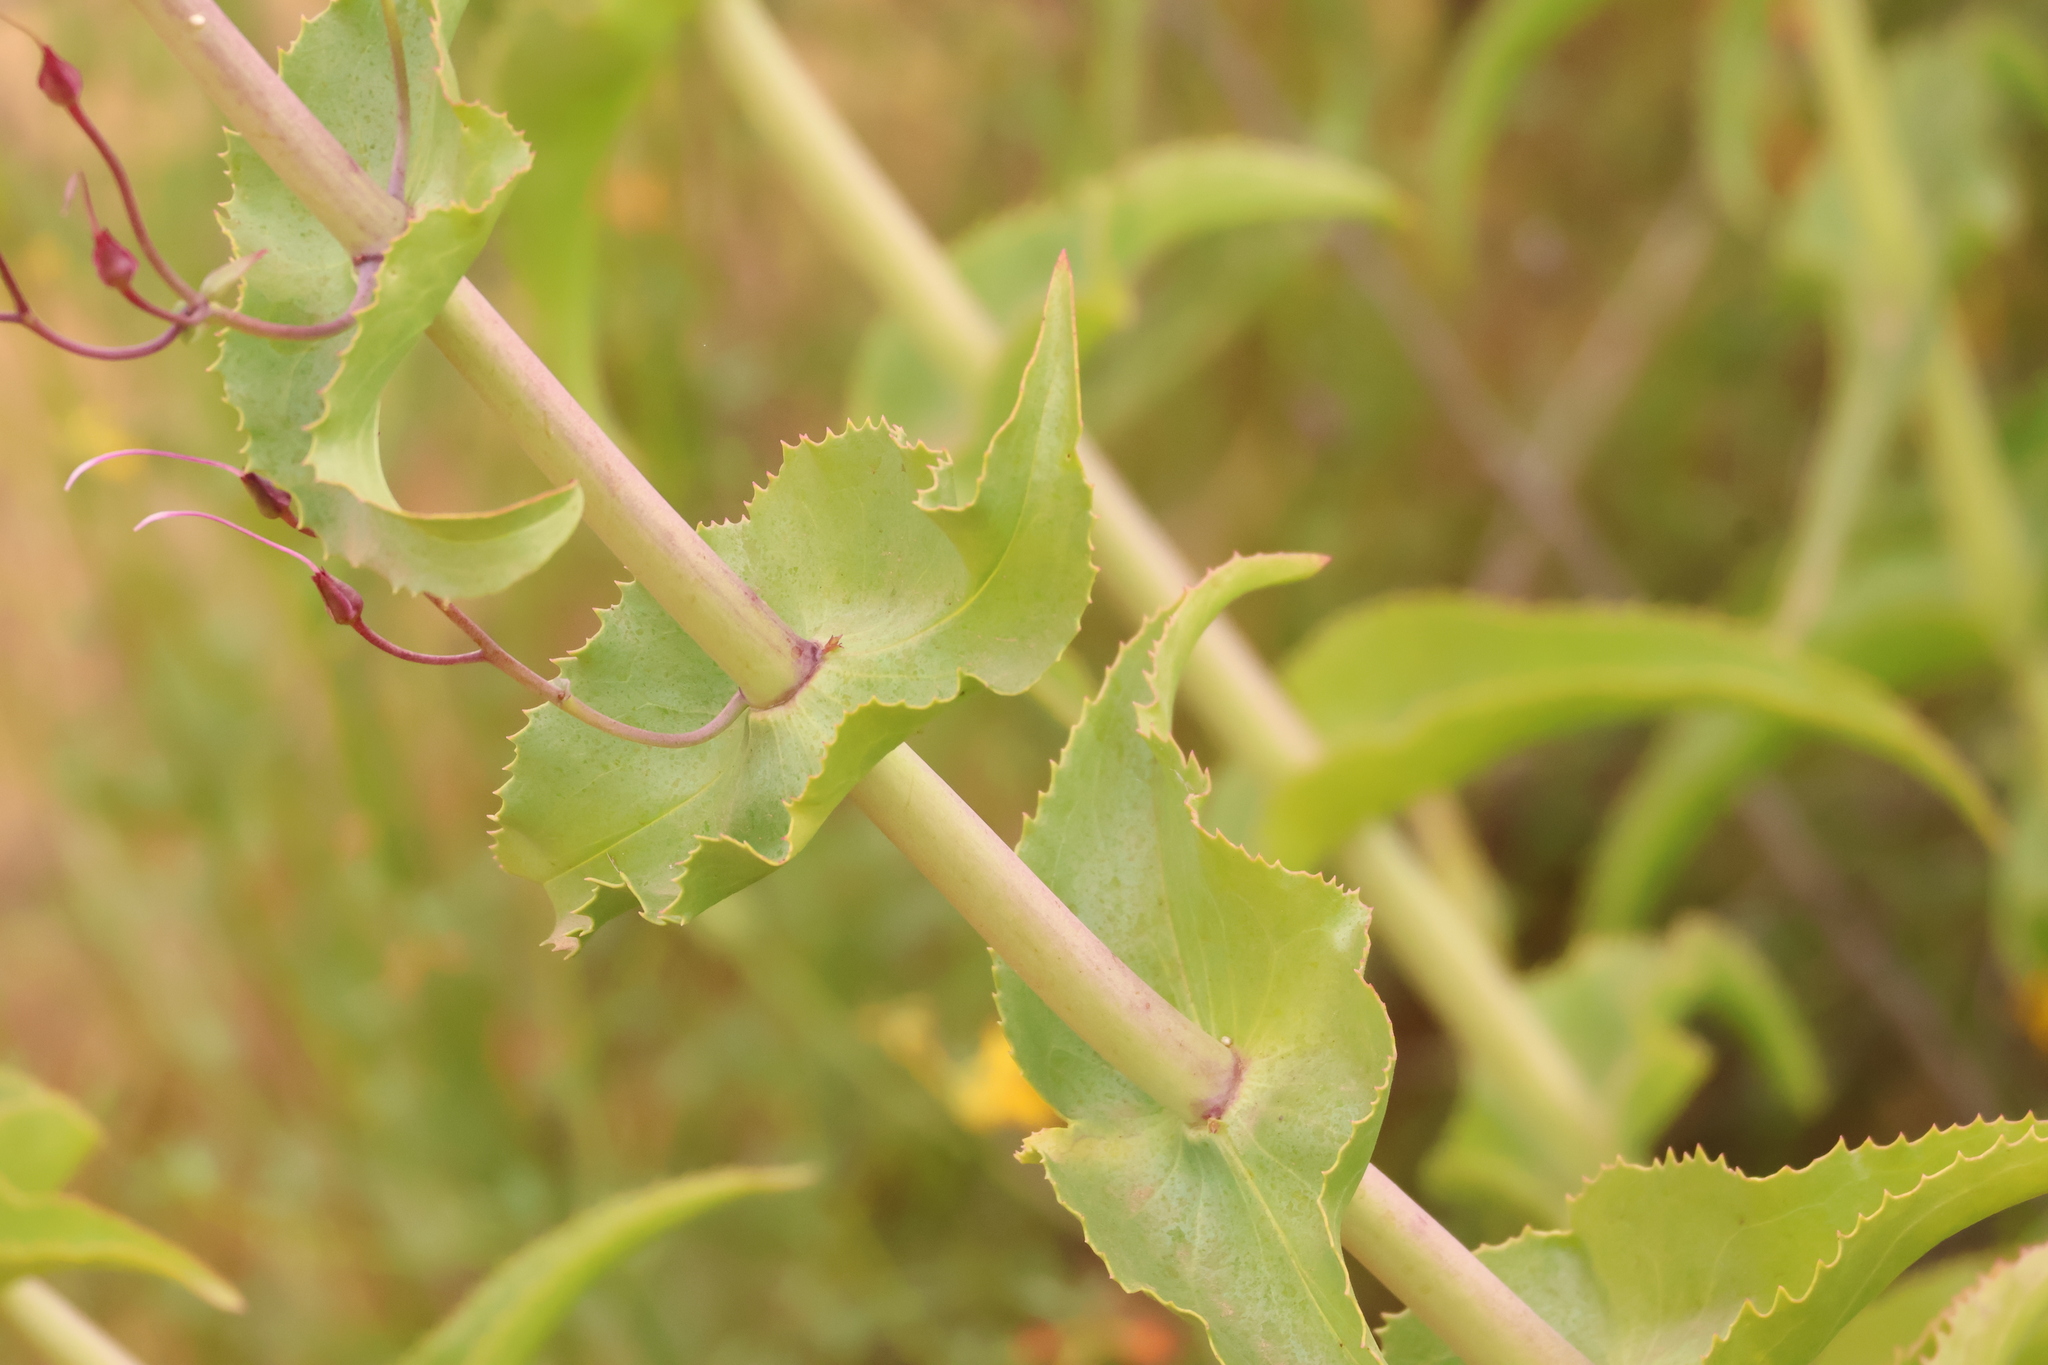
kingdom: Plantae
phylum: Tracheophyta
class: Magnoliopsida
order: Lamiales
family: Plantaginaceae
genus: Penstemon
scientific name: Penstemon spectabilis
